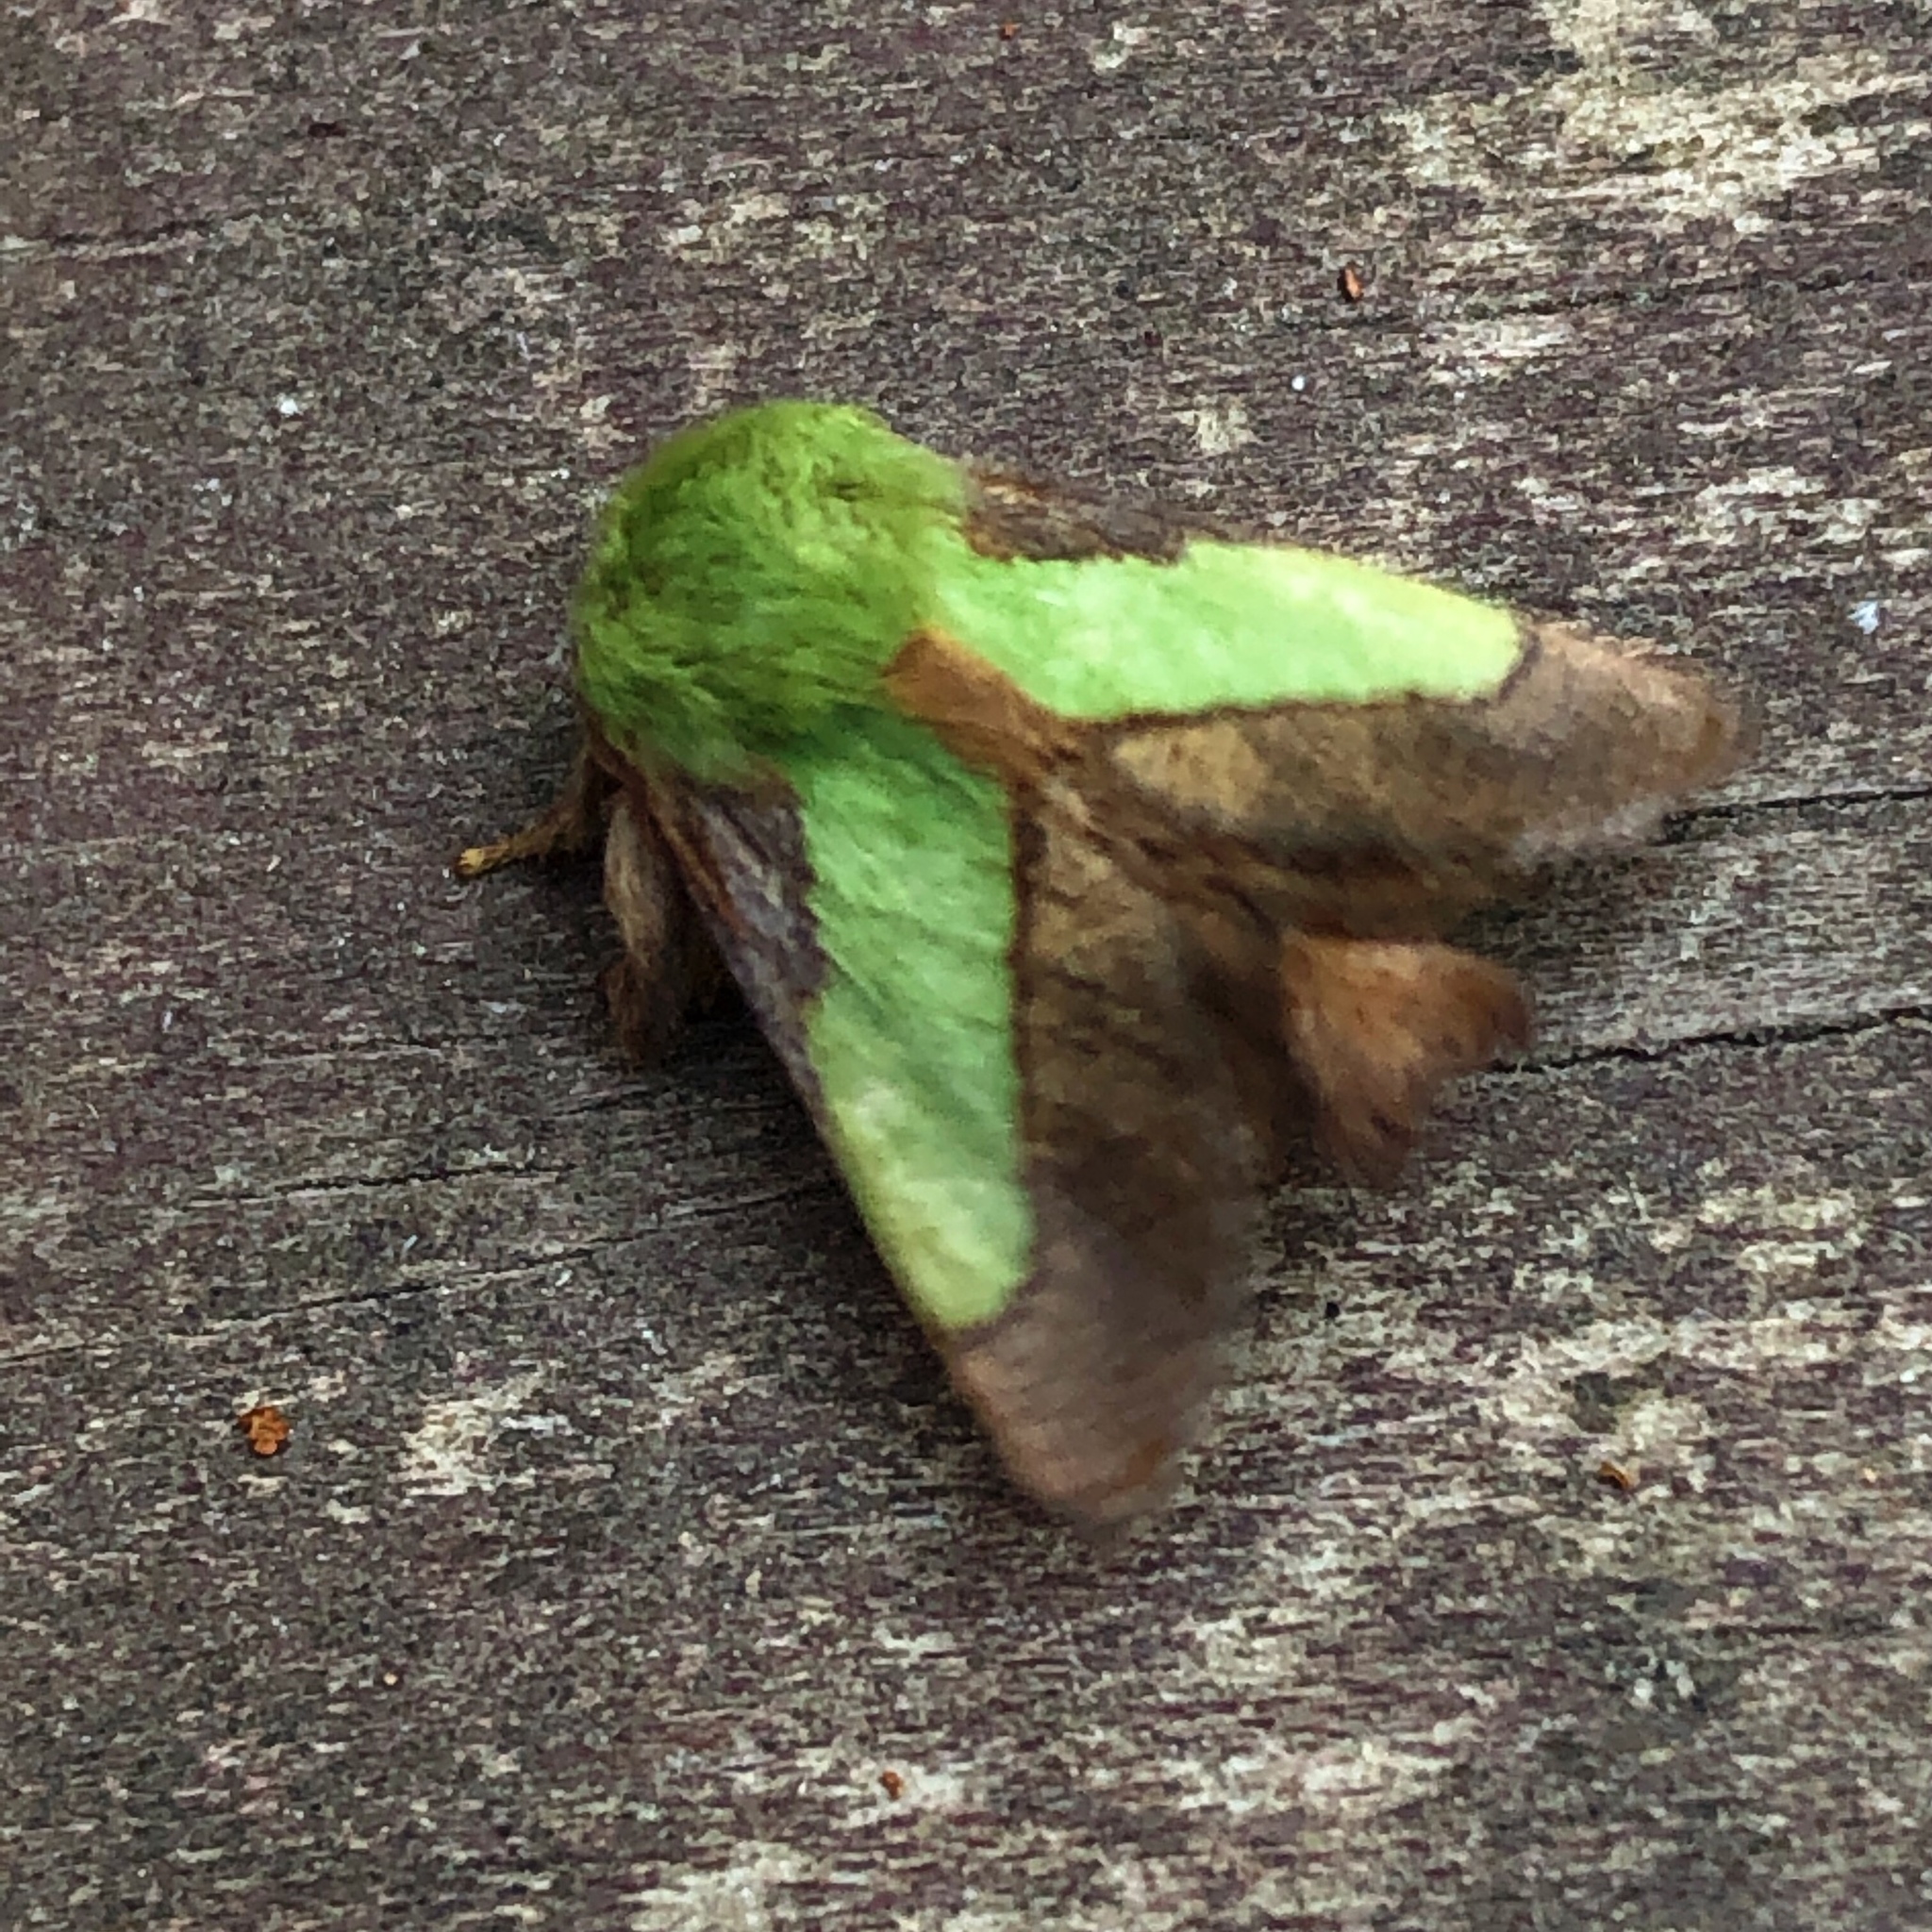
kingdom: Animalia
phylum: Arthropoda
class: Insecta
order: Lepidoptera
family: Limacodidae
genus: Parasa
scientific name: Parasa chloris
